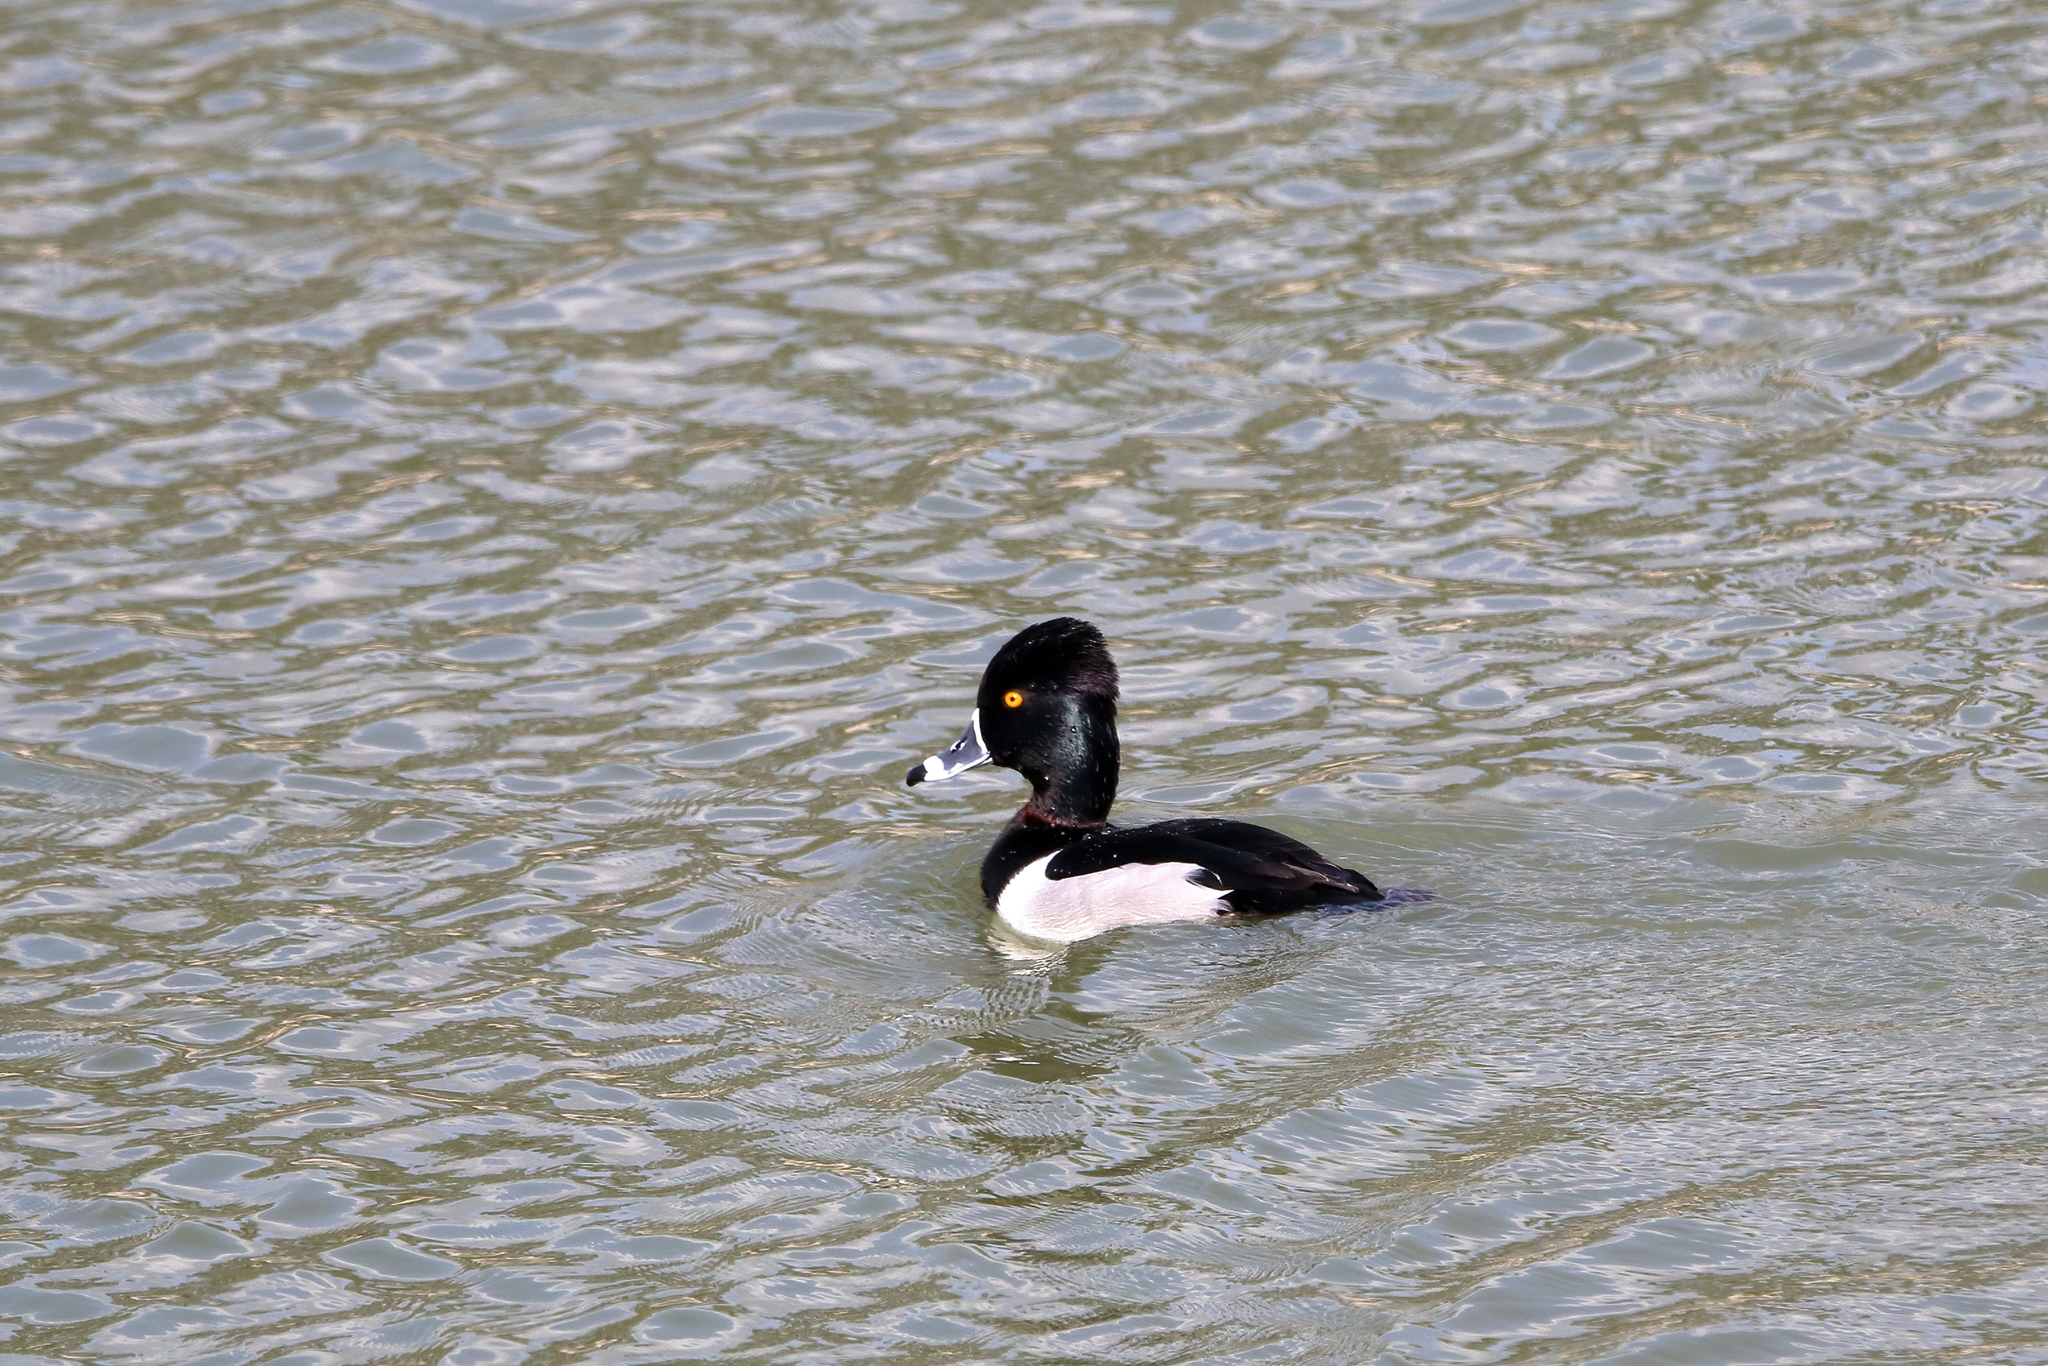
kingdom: Animalia
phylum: Chordata
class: Aves
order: Anseriformes
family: Anatidae
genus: Aythya
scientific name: Aythya collaris
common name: Ring-necked duck
